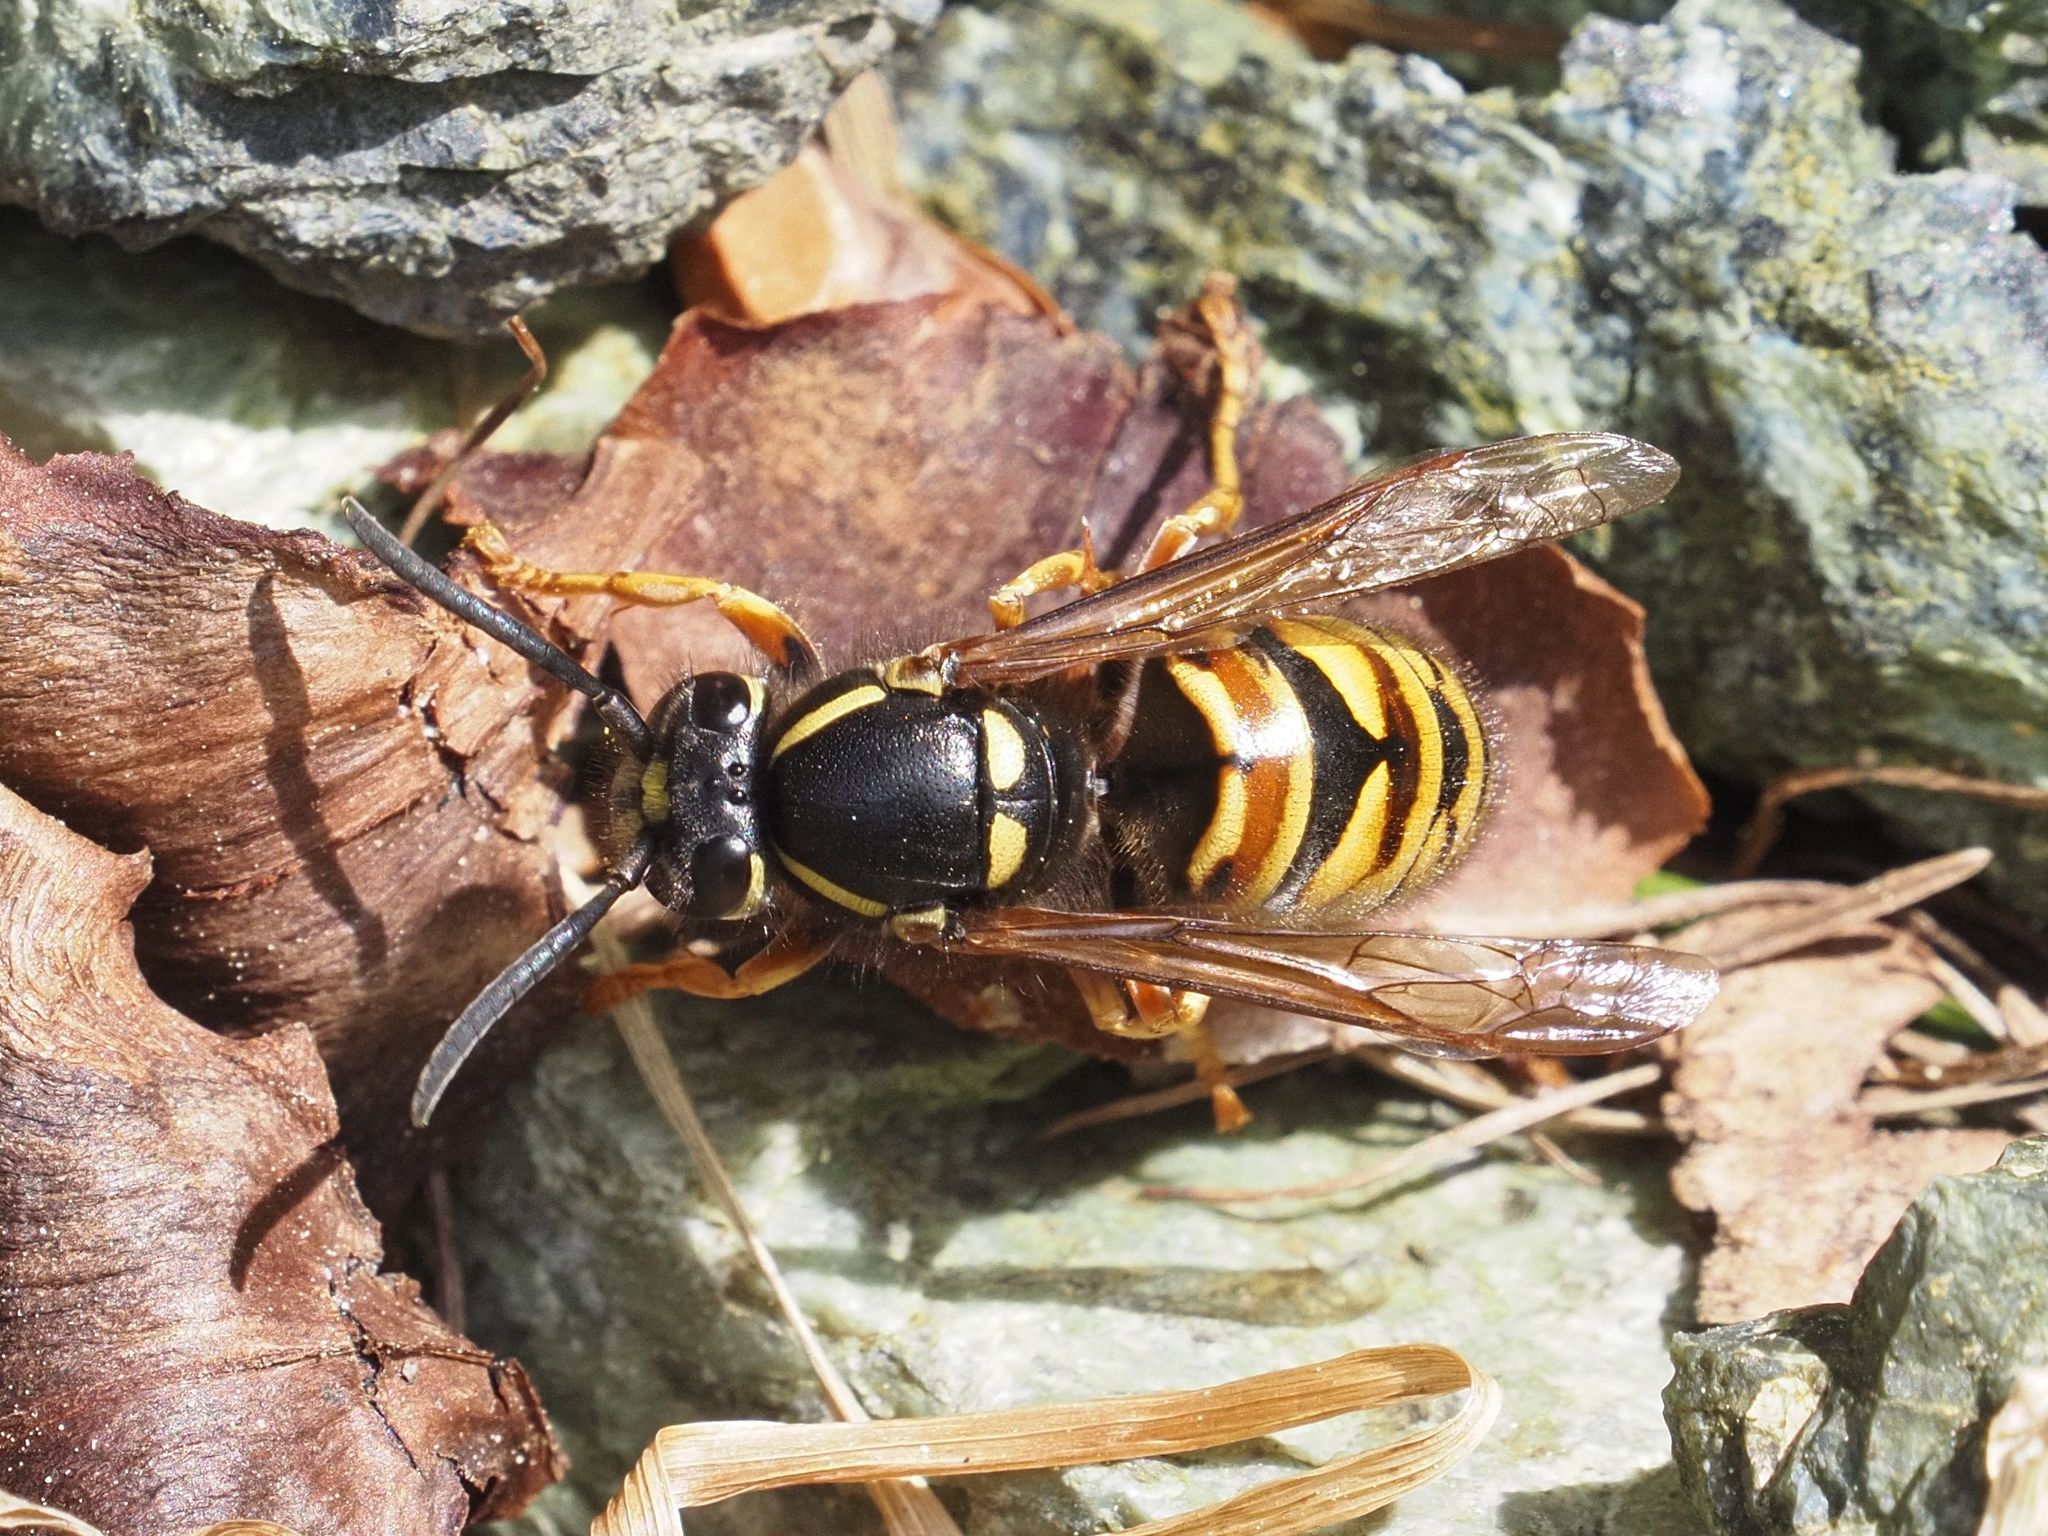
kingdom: Animalia
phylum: Arthropoda
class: Insecta
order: Hymenoptera
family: Vespidae
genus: Vespula
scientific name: Vespula rufa
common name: Red wasp
